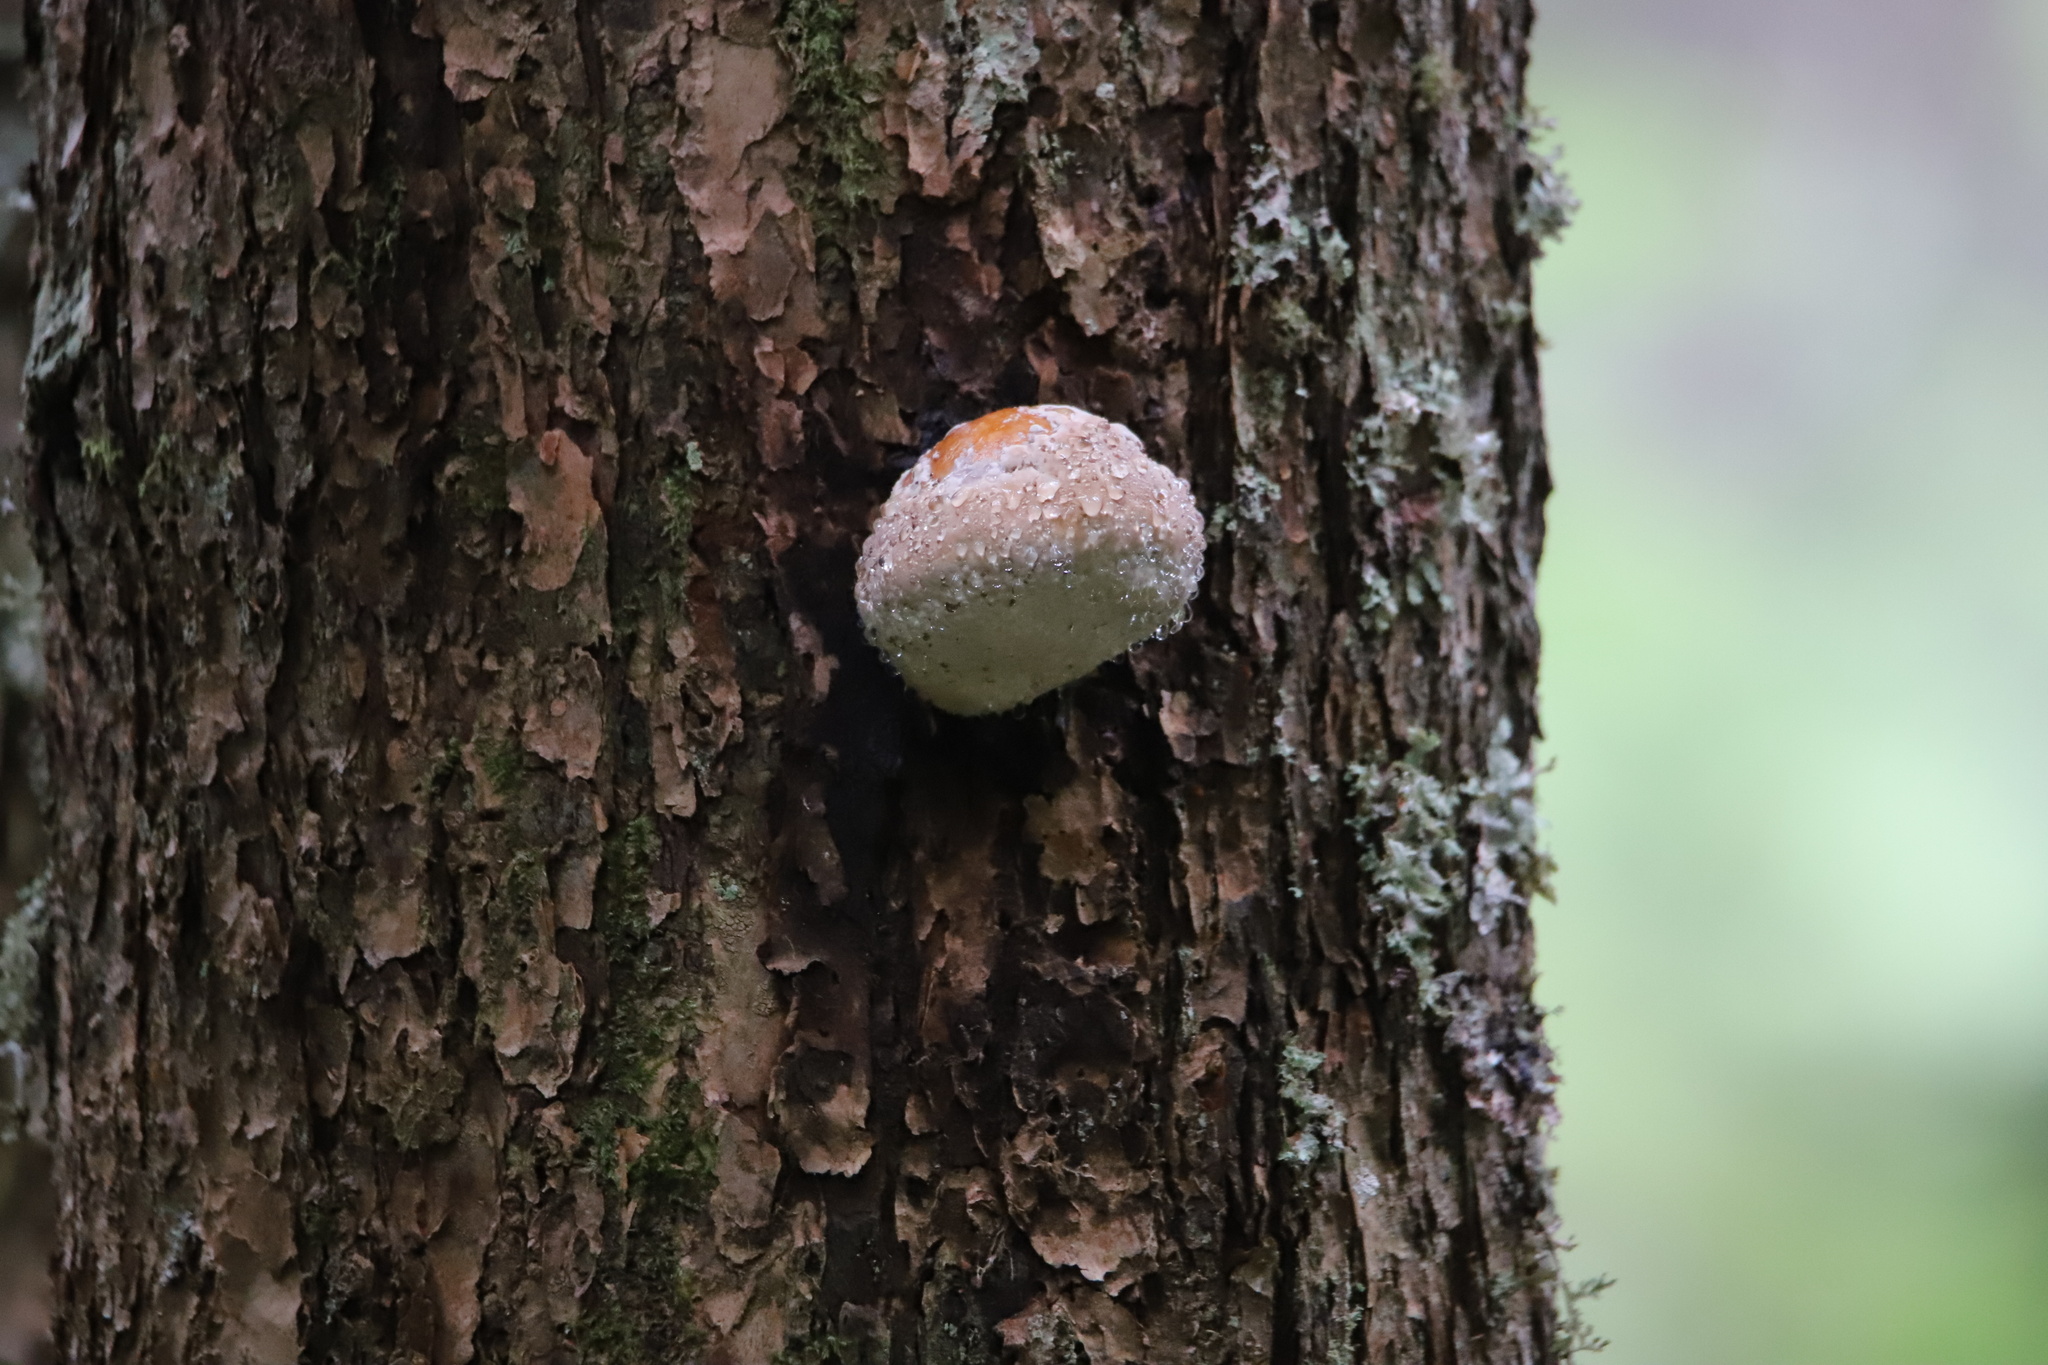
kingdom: Fungi
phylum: Basidiomycota
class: Agaricomycetes
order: Polyporales
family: Fomitopsidaceae
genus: Fomitopsis
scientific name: Fomitopsis mounceae
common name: Northern red belt
